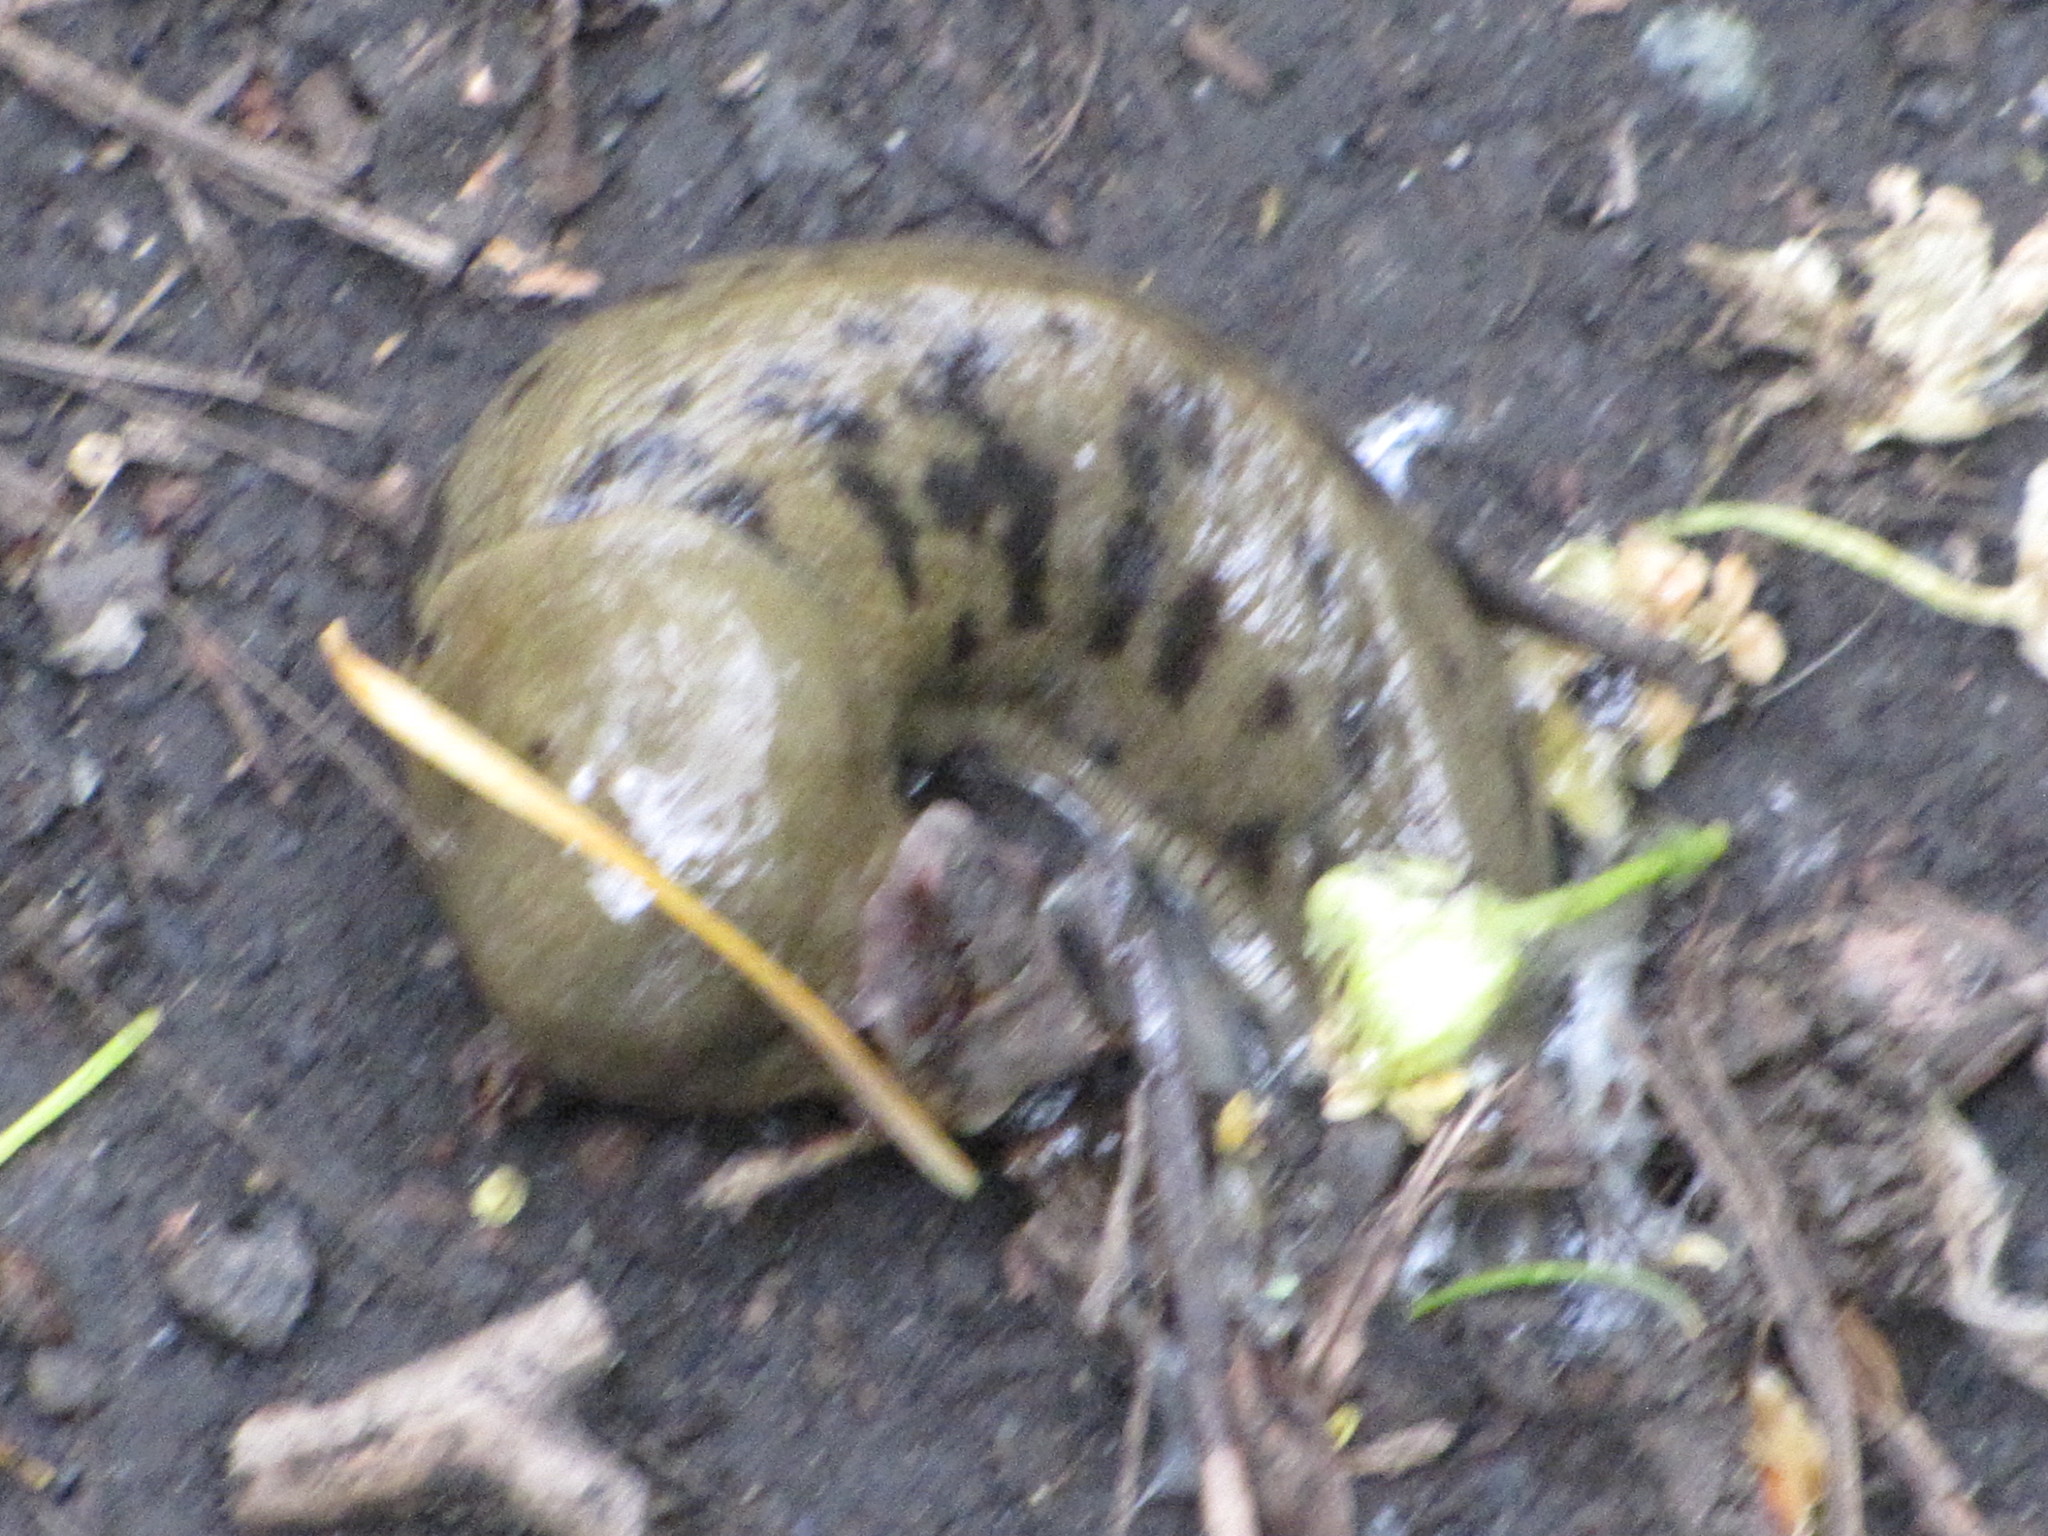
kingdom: Animalia
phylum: Mollusca
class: Gastropoda
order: Stylommatophora
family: Ariolimacidae
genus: Ariolimax
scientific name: Ariolimax columbianus
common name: Pacific banana slug
